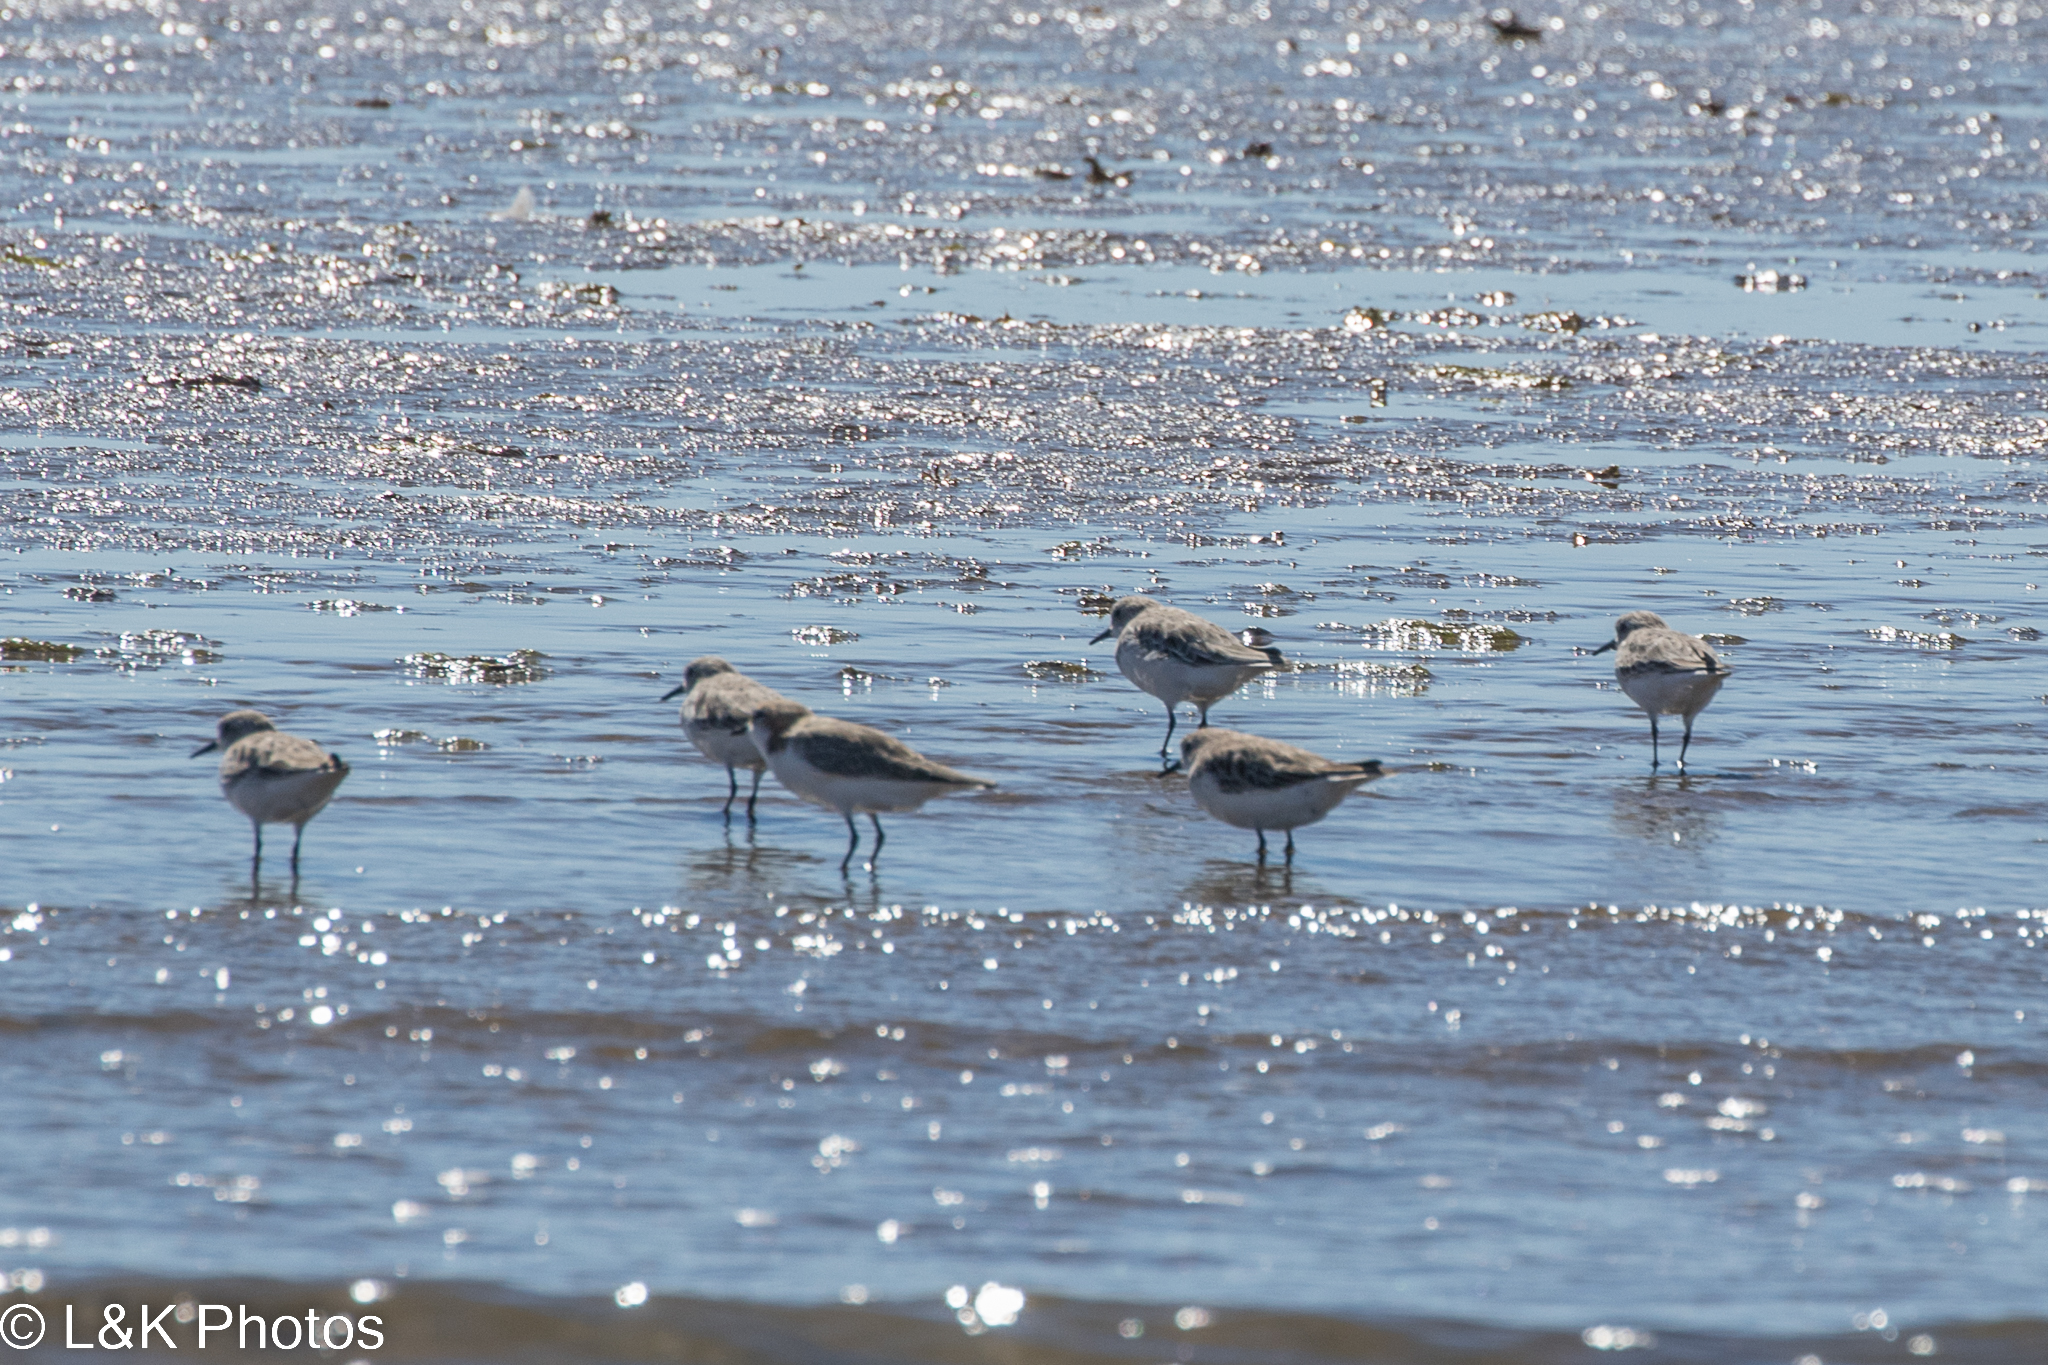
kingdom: Animalia
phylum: Chordata
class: Aves
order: Charadriiformes
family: Scolopacidae
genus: Calidris
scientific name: Calidris ruficollis
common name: Red-necked stint
